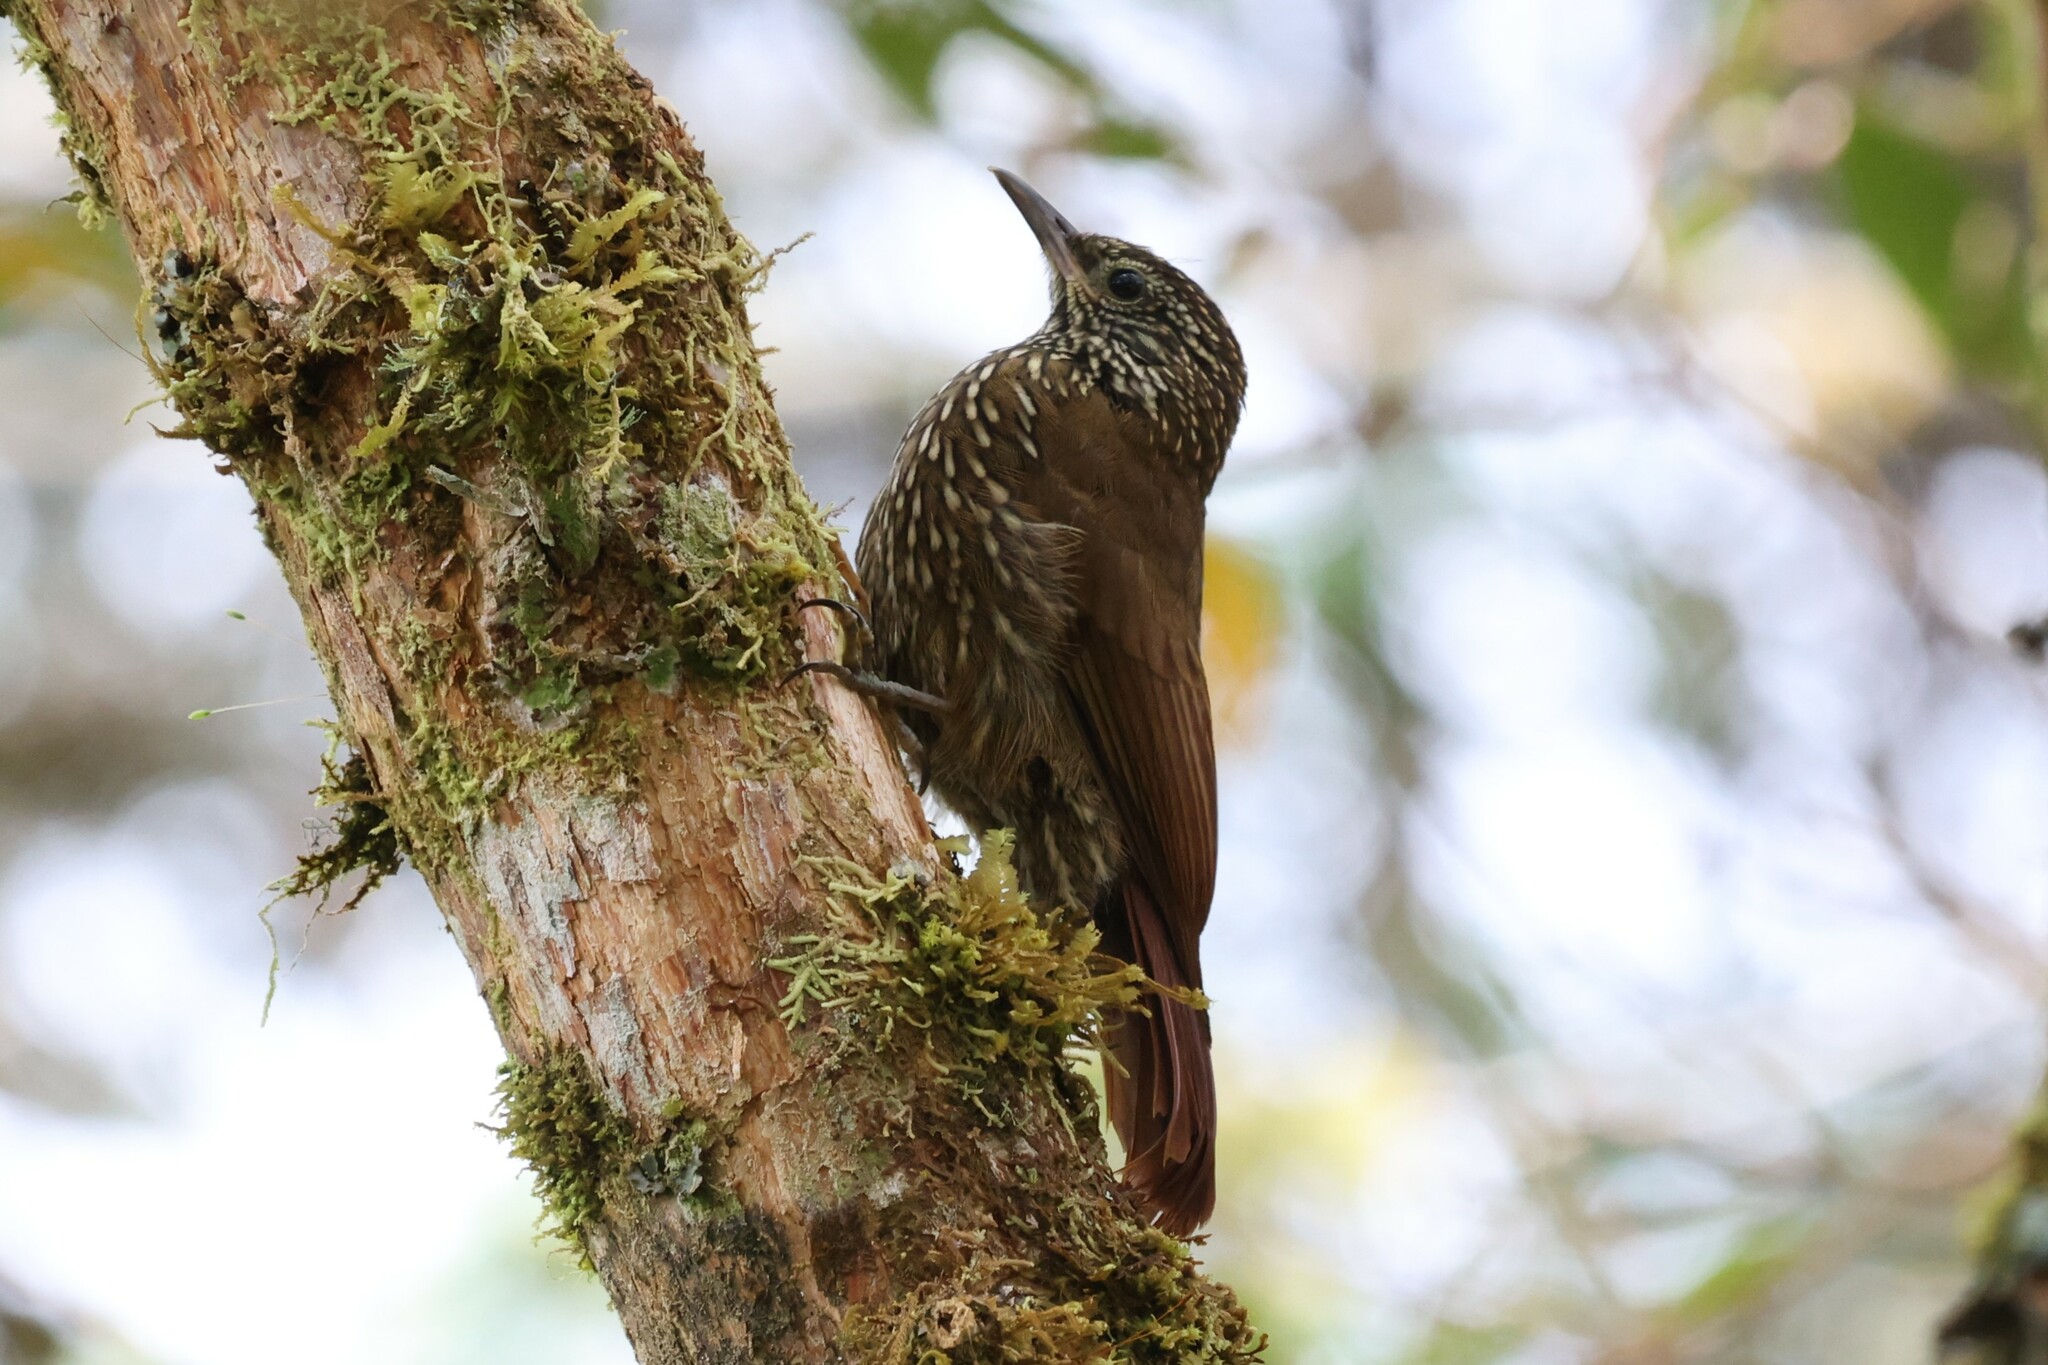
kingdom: Animalia
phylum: Chordata
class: Aves
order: Passeriformes
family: Furnariidae
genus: Lepidocolaptes
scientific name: Lepidocolaptes lacrymiger
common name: Montane woodcreeper
